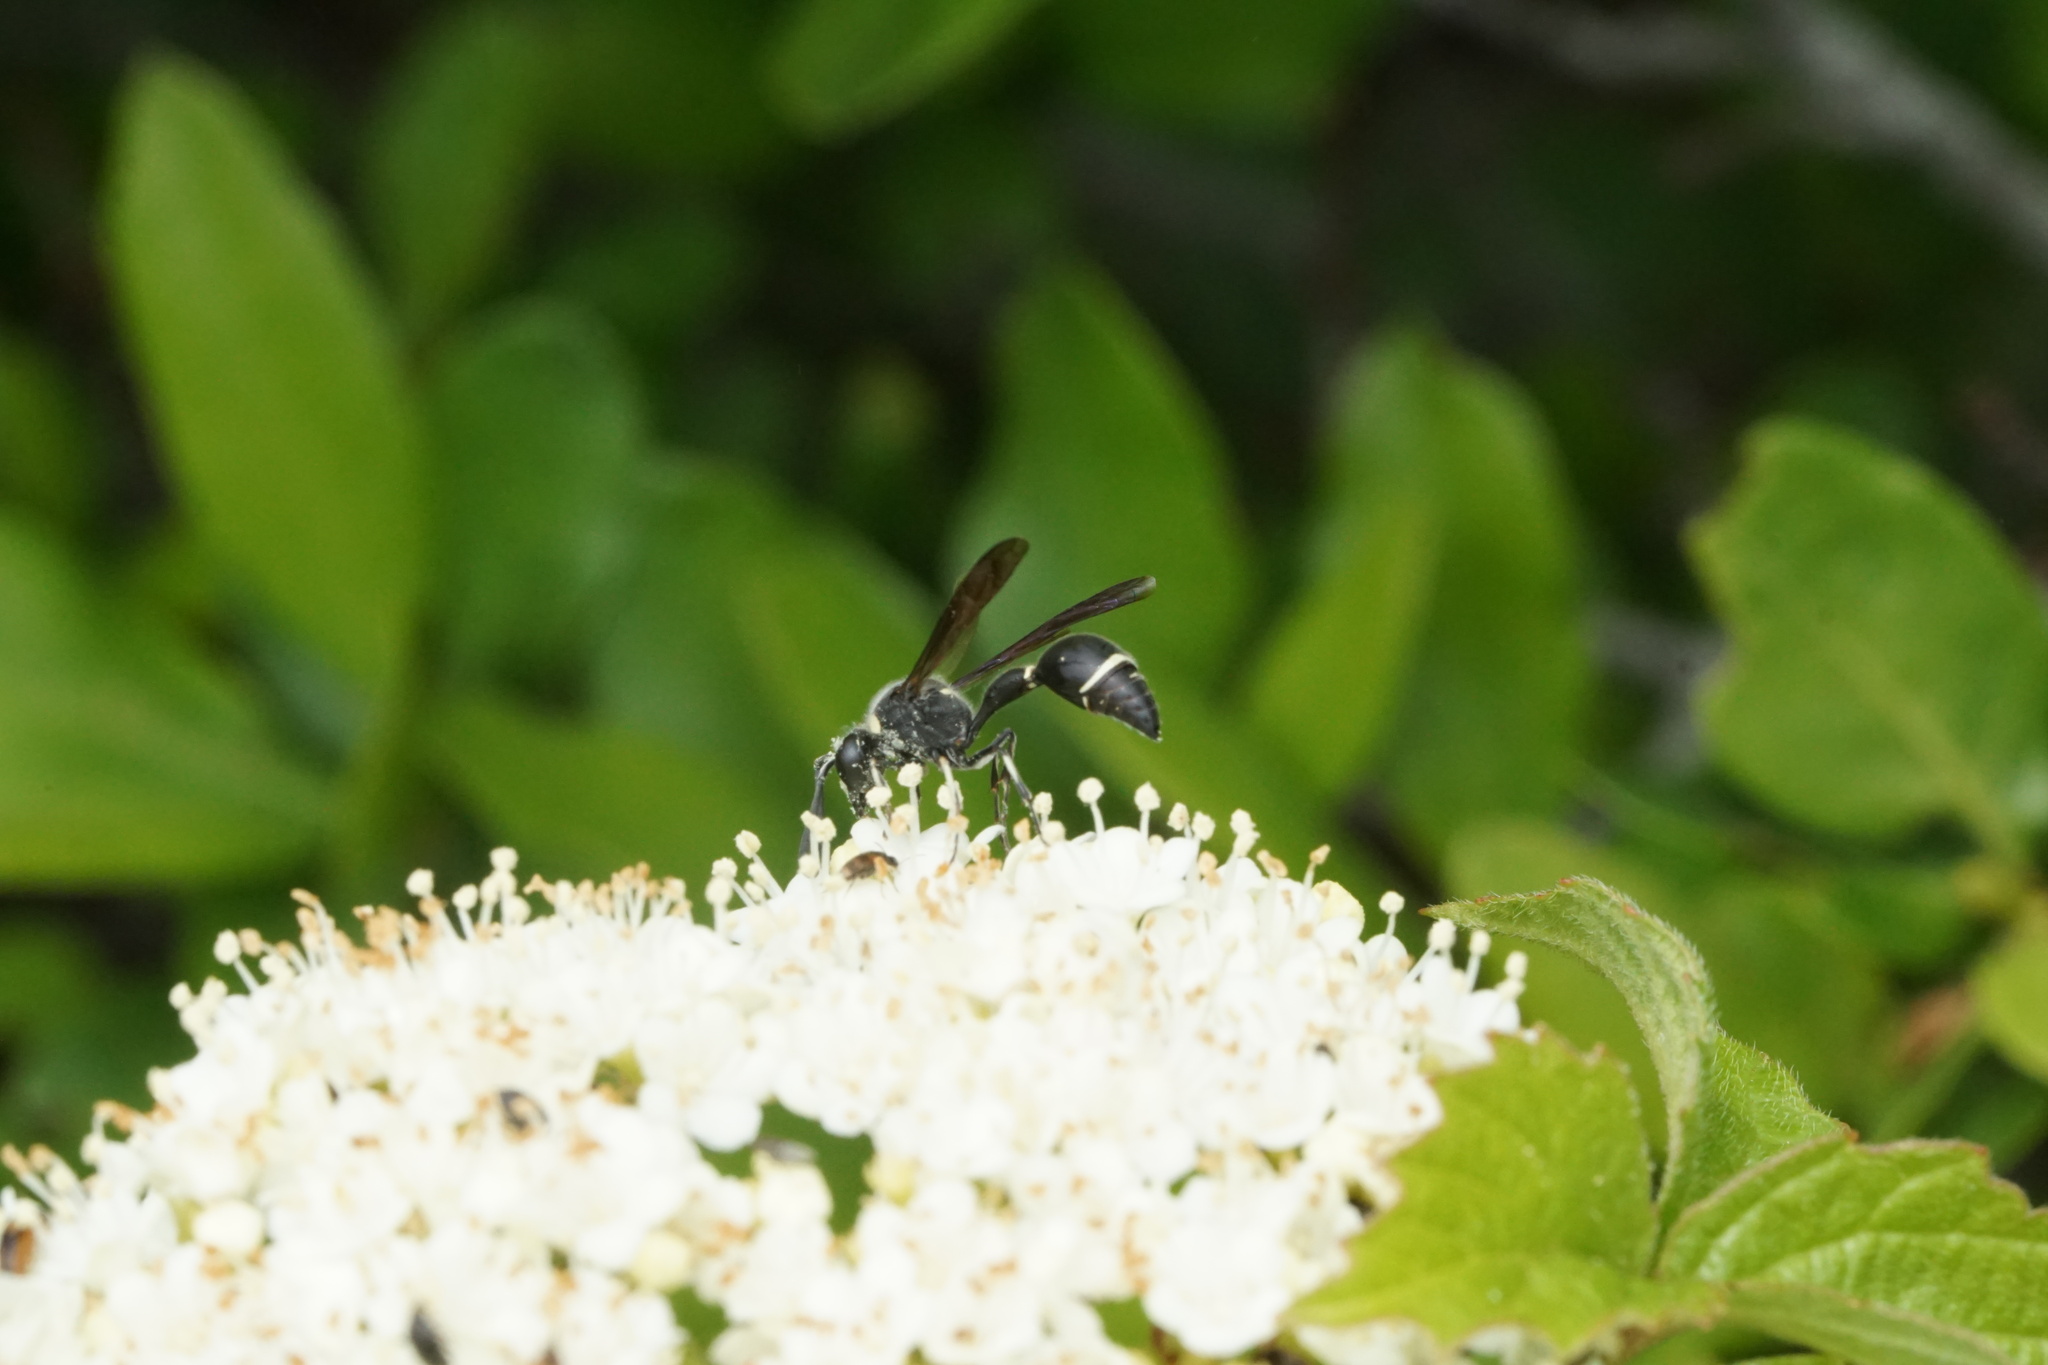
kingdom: Animalia
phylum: Arthropoda
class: Insecta
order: Hymenoptera
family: Vespidae
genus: Eumenes
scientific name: Eumenes fraternus
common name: Fraternal potter wasp
